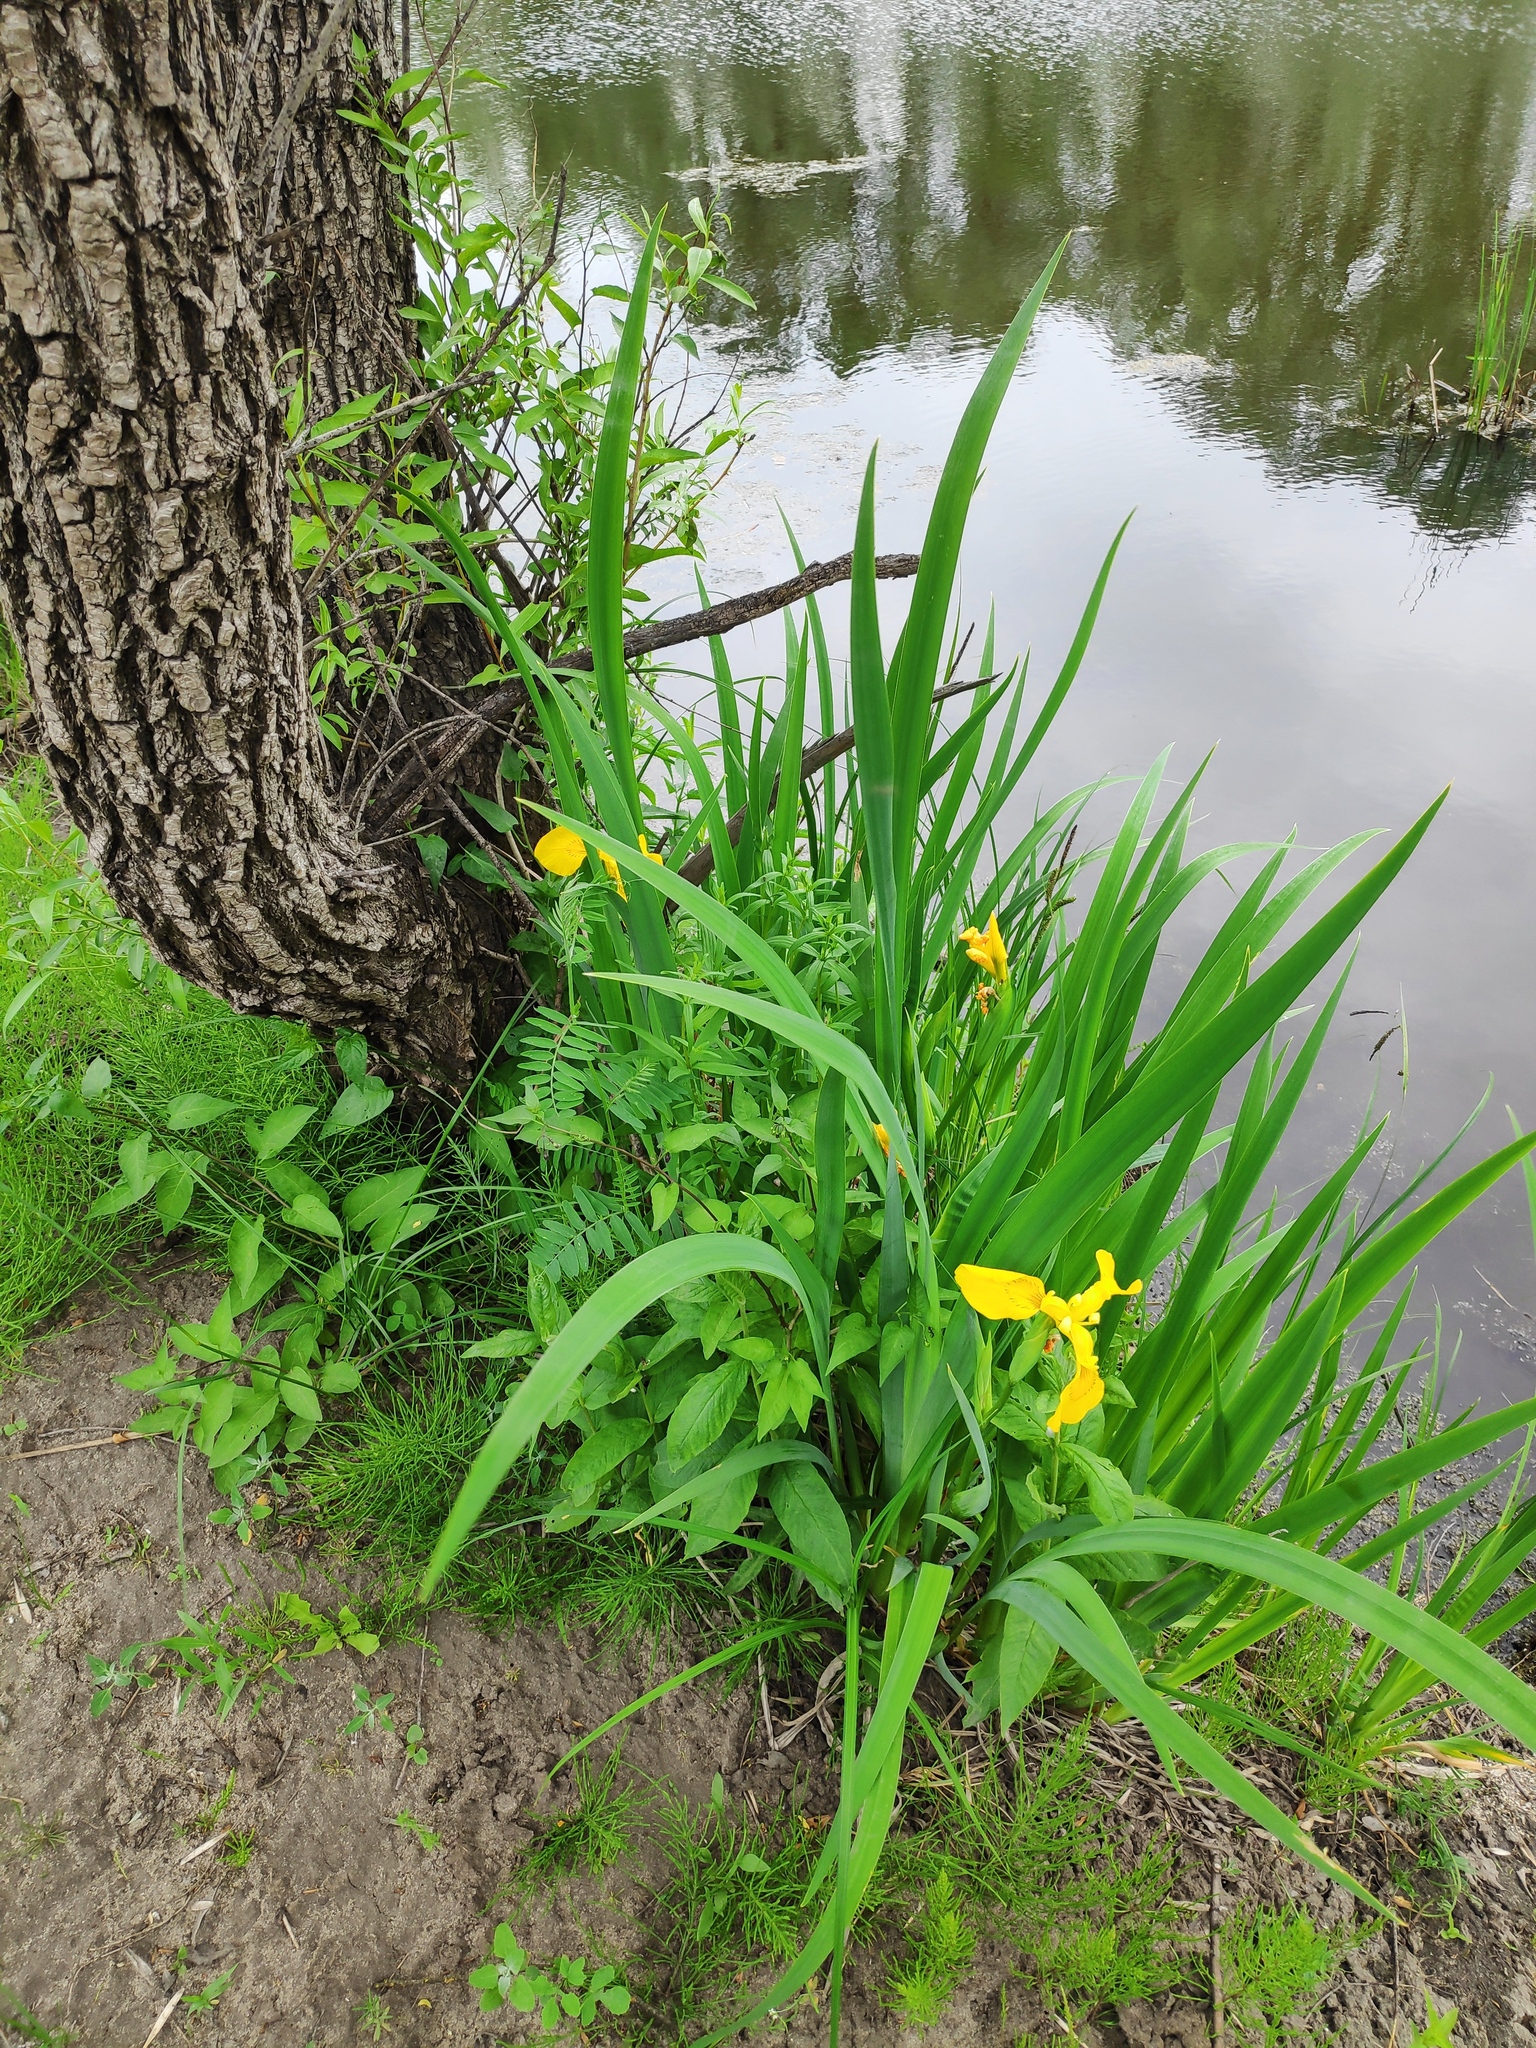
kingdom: Plantae
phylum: Tracheophyta
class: Liliopsida
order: Asparagales
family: Iridaceae
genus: Iris
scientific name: Iris pseudacorus
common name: Yellow flag
